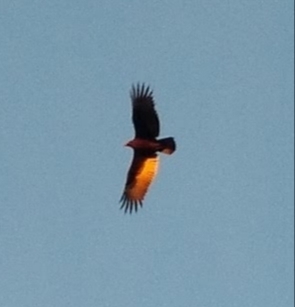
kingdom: Animalia
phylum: Chordata
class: Aves
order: Accipitriformes
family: Cathartidae
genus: Cathartes
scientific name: Cathartes aura
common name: Turkey vulture
